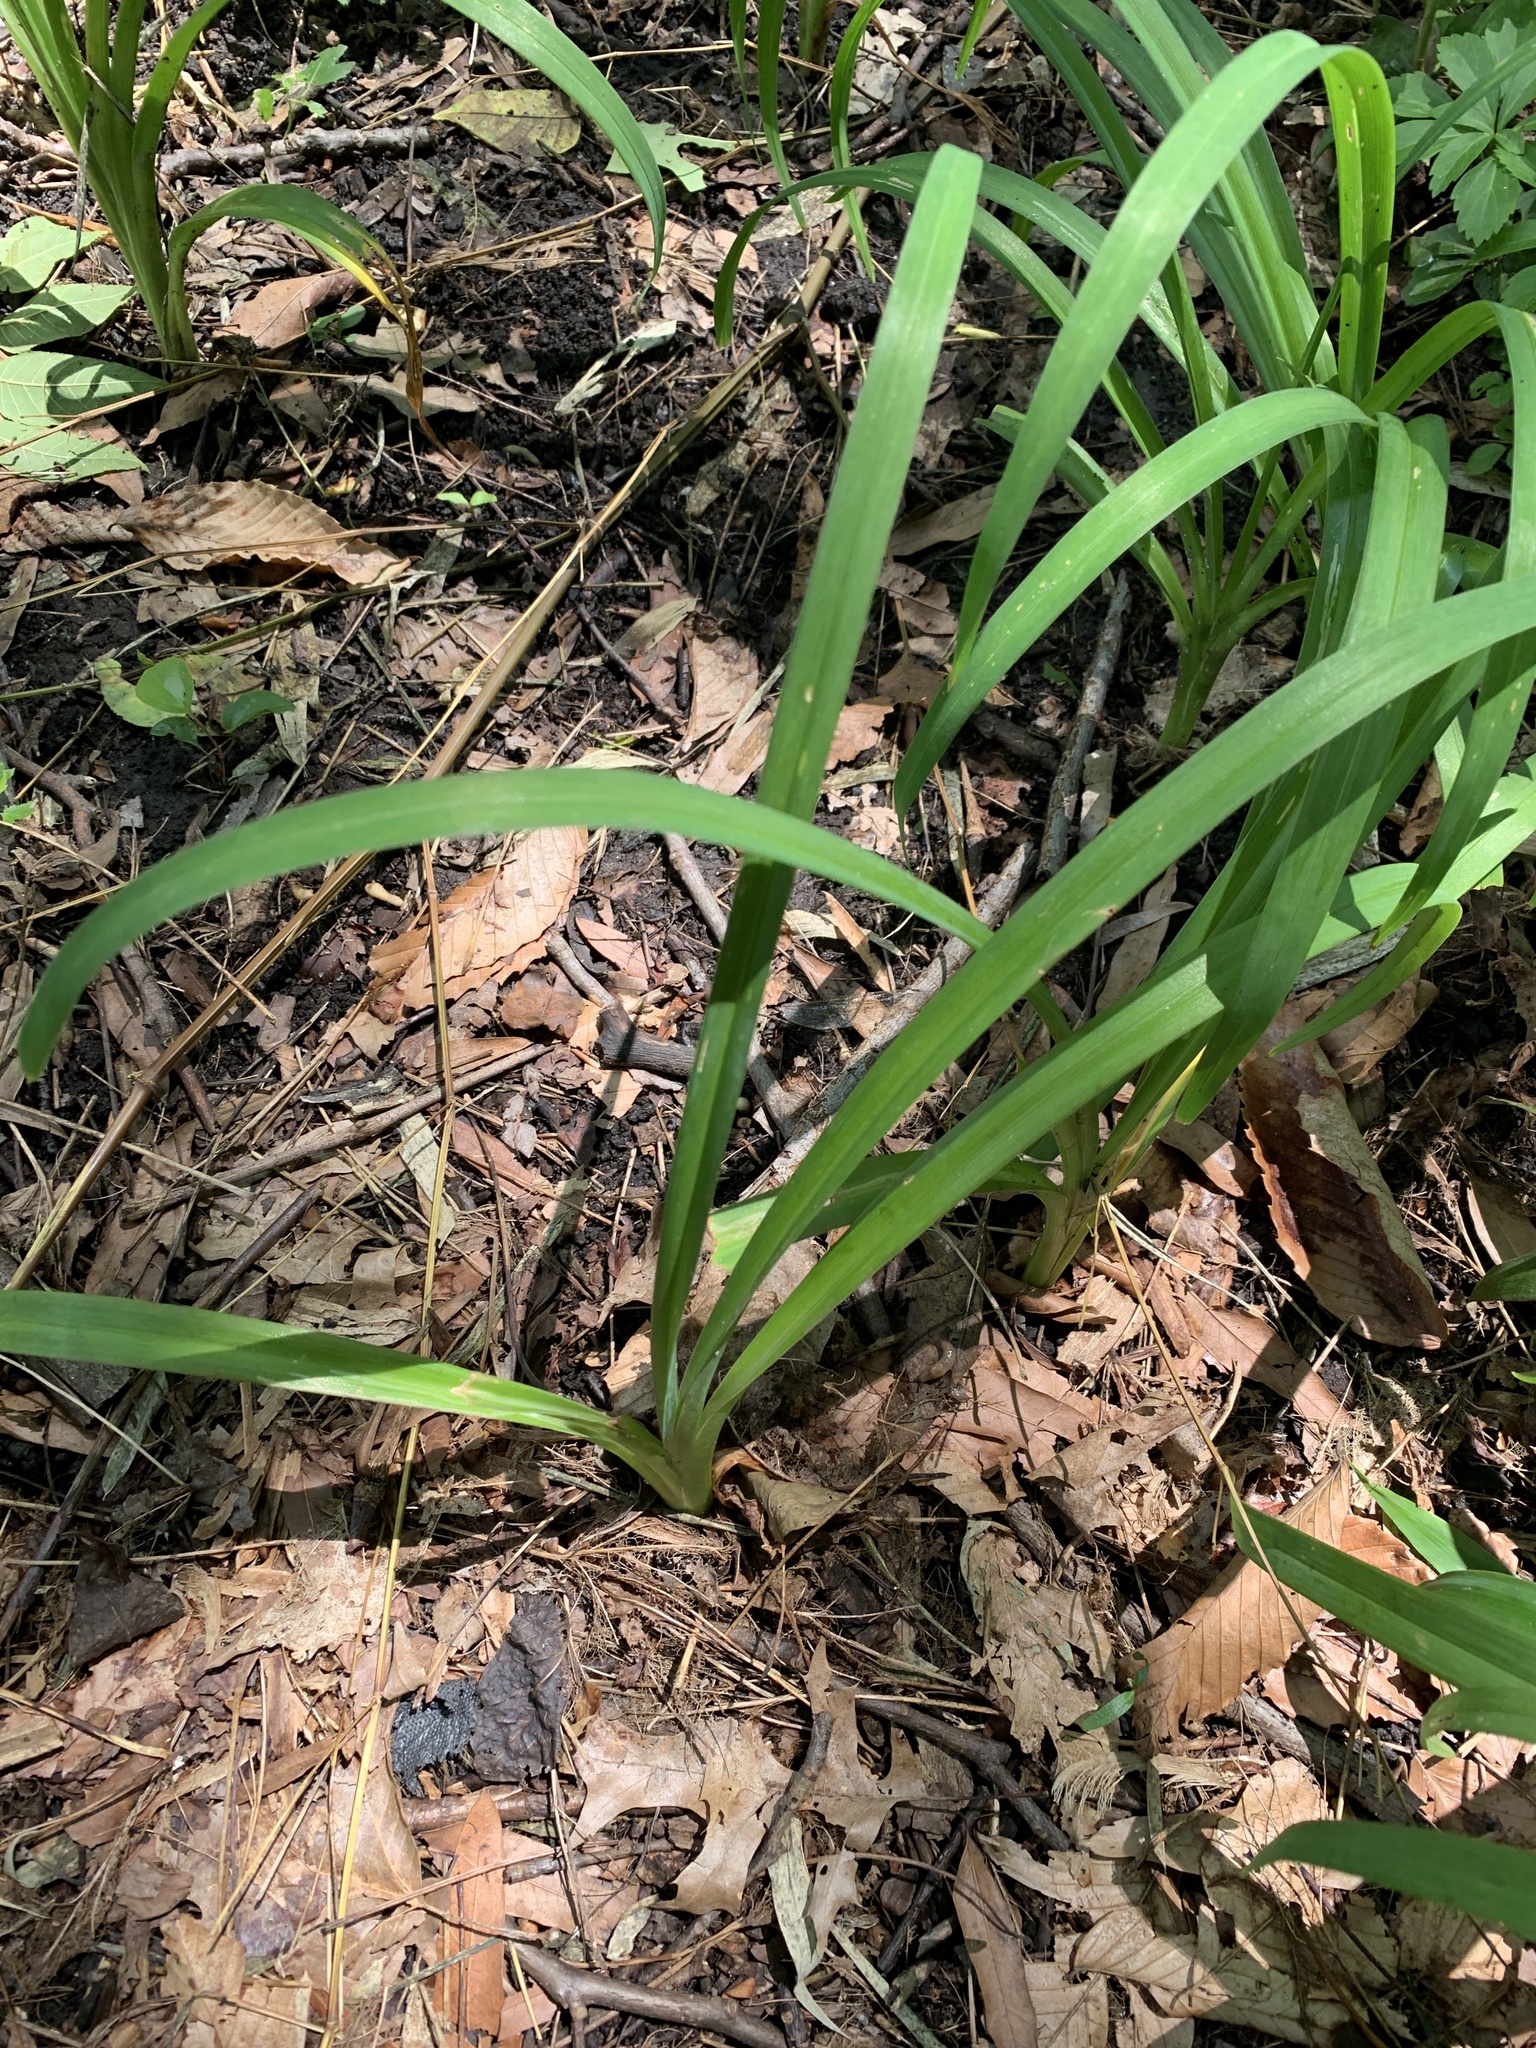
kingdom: Plantae
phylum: Tracheophyta
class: Liliopsida
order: Asparagales
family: Asphodelaceae
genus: Hemerocallis
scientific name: Hemerocallis fulva
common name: Orange day-lily
